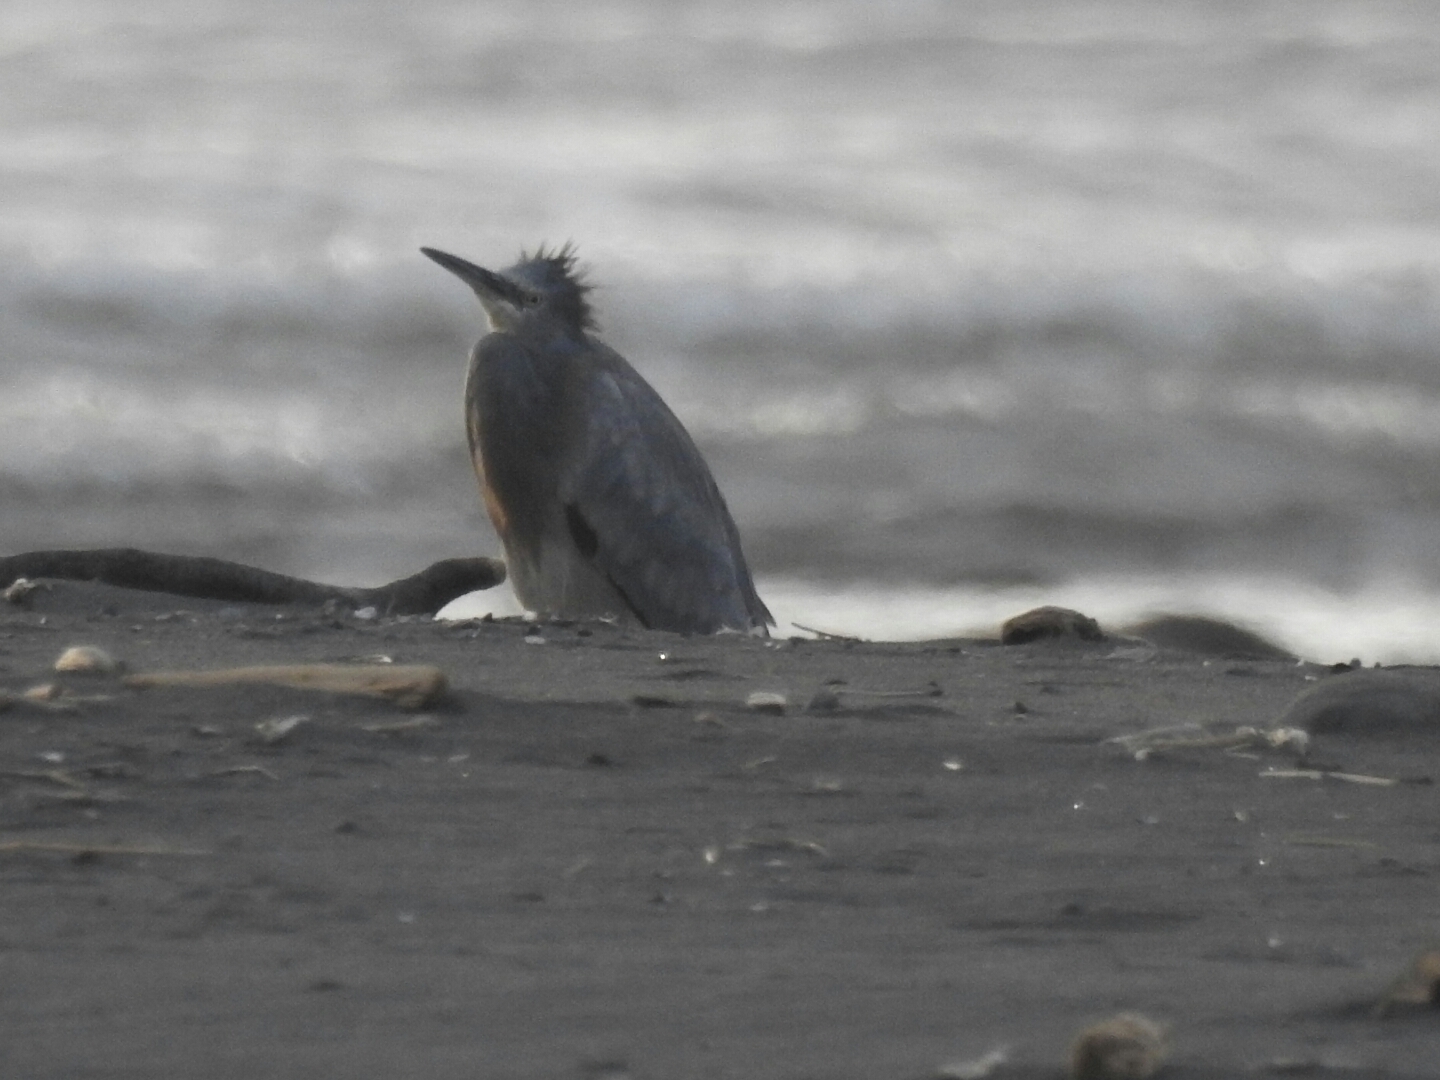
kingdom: Animalia
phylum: Chordata
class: Aves
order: Pelecaniformes
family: Ardeidae
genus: Egretta
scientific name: Egretta novaehollandiae
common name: White-faced heron
